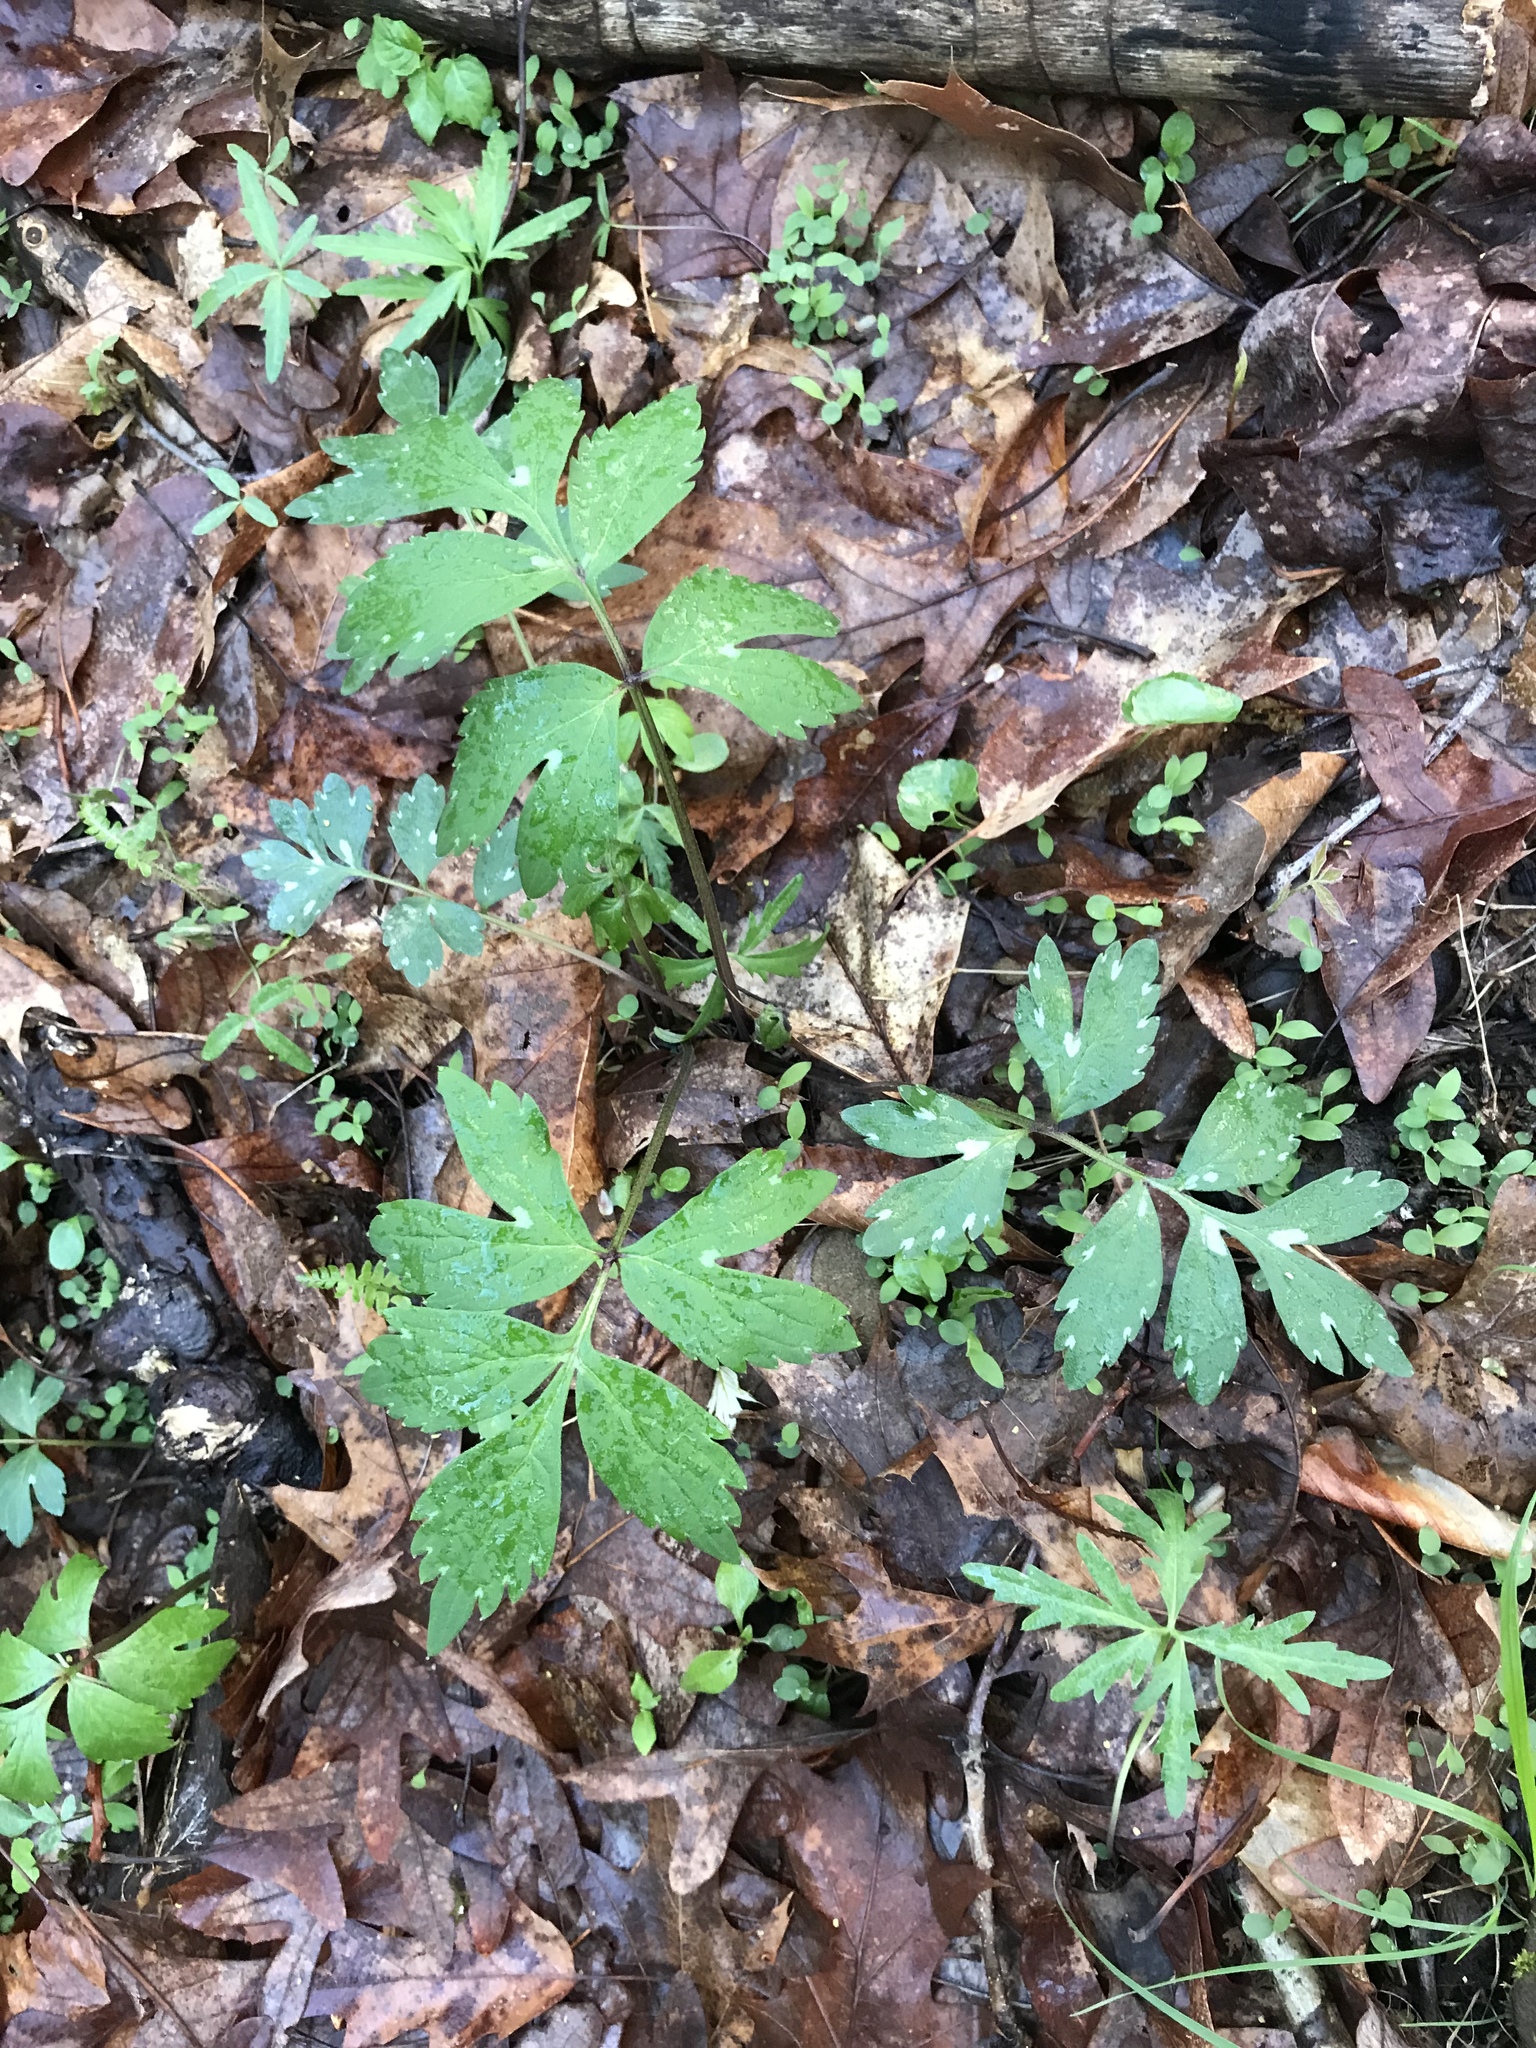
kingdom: Plantae
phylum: Tracheophyta
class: Magnoliopsida
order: Boraginales
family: Hydrophyllaceae
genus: Hydrophyllum
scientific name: Hydrophyllum virginianum
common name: Virginia waterleaf
